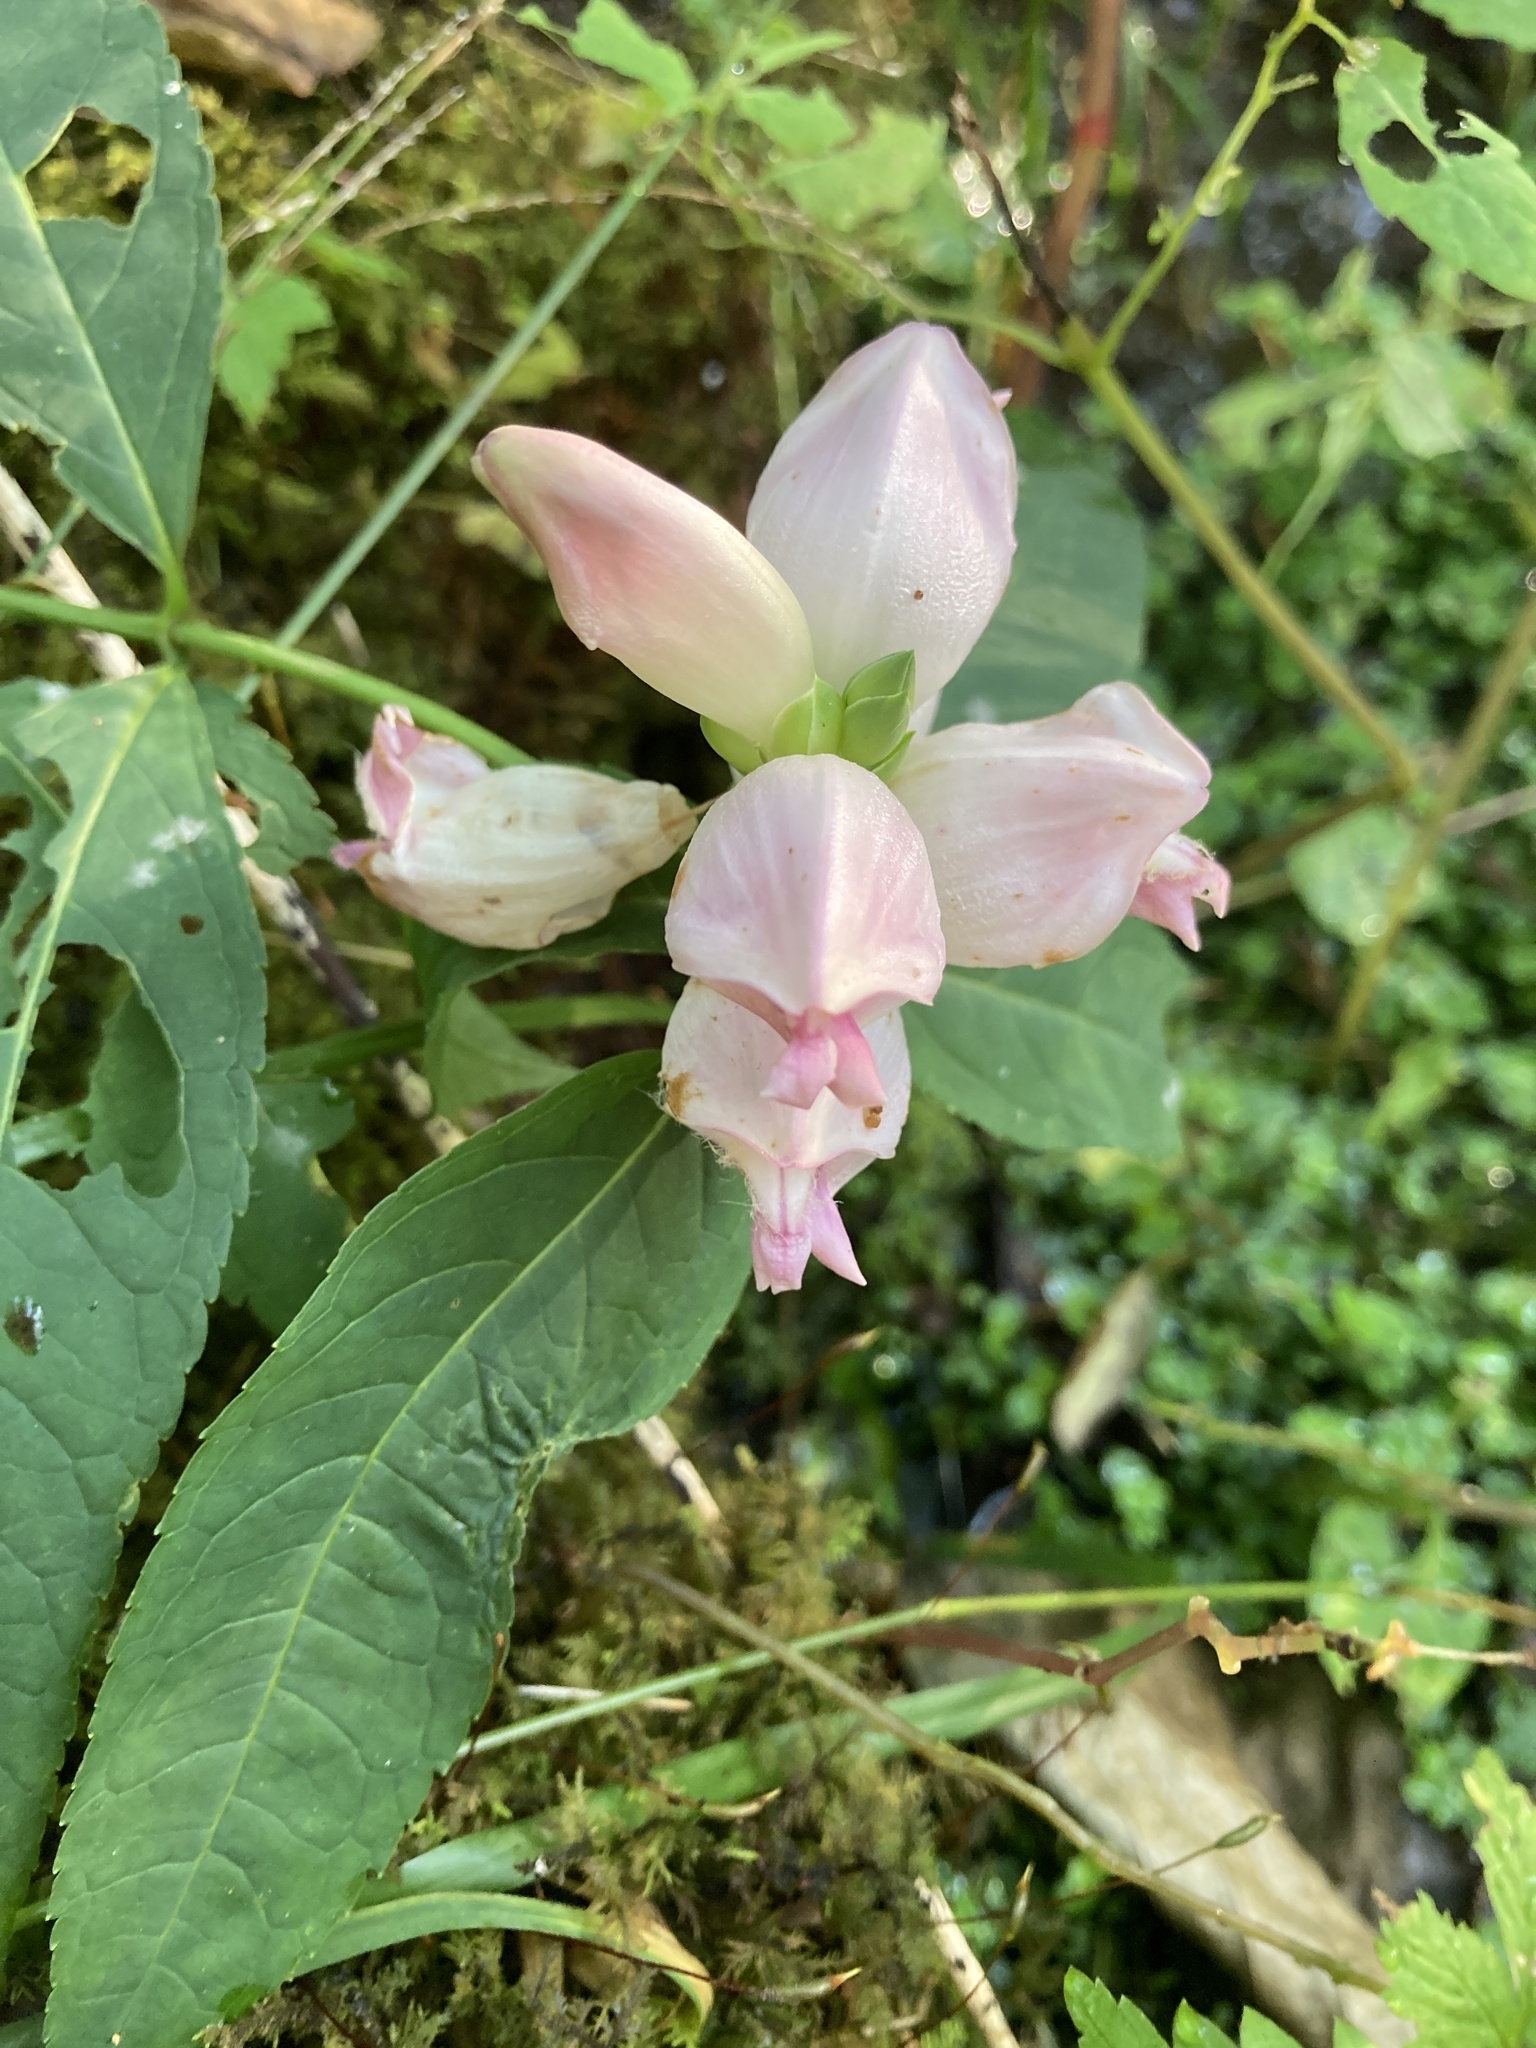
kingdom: Plantae
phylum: Tracheophyta
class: Magnoliopsida
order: Lamiales
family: Plantaginaceae
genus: Chelone
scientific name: Chelone glabra
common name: Snakehead
